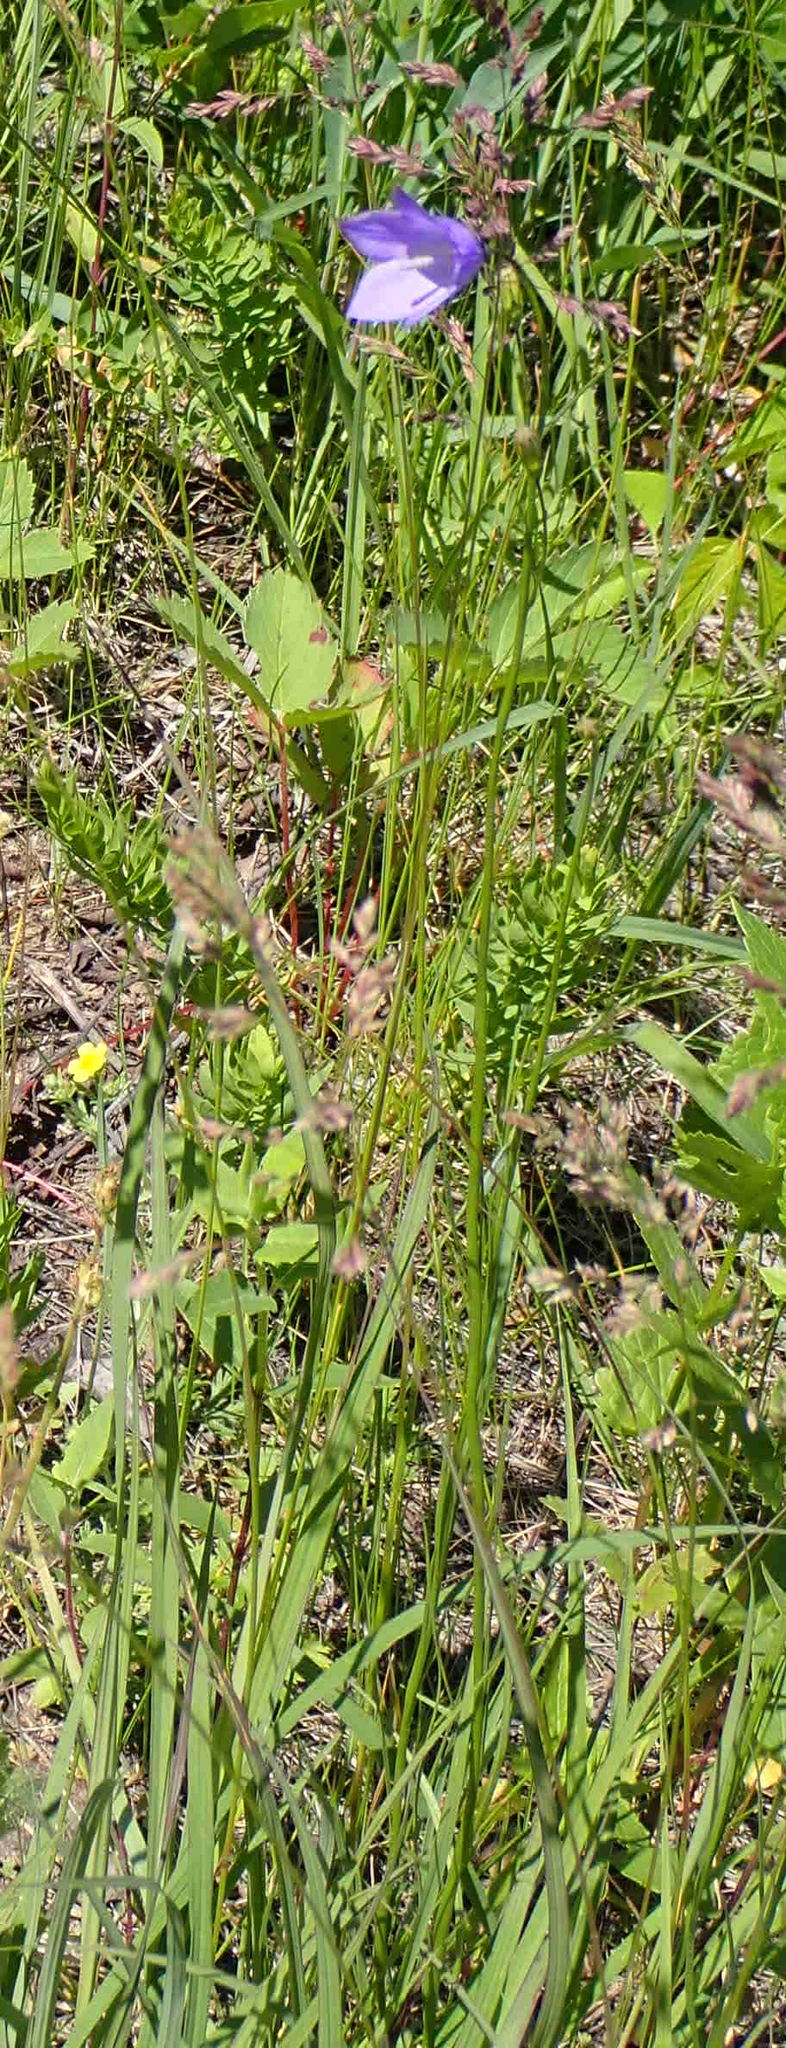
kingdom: Plantae
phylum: Tracheophyta
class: Magnoliopsida
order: Asterales
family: Campanulaceae
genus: Campanula
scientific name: Campanula petiolata
